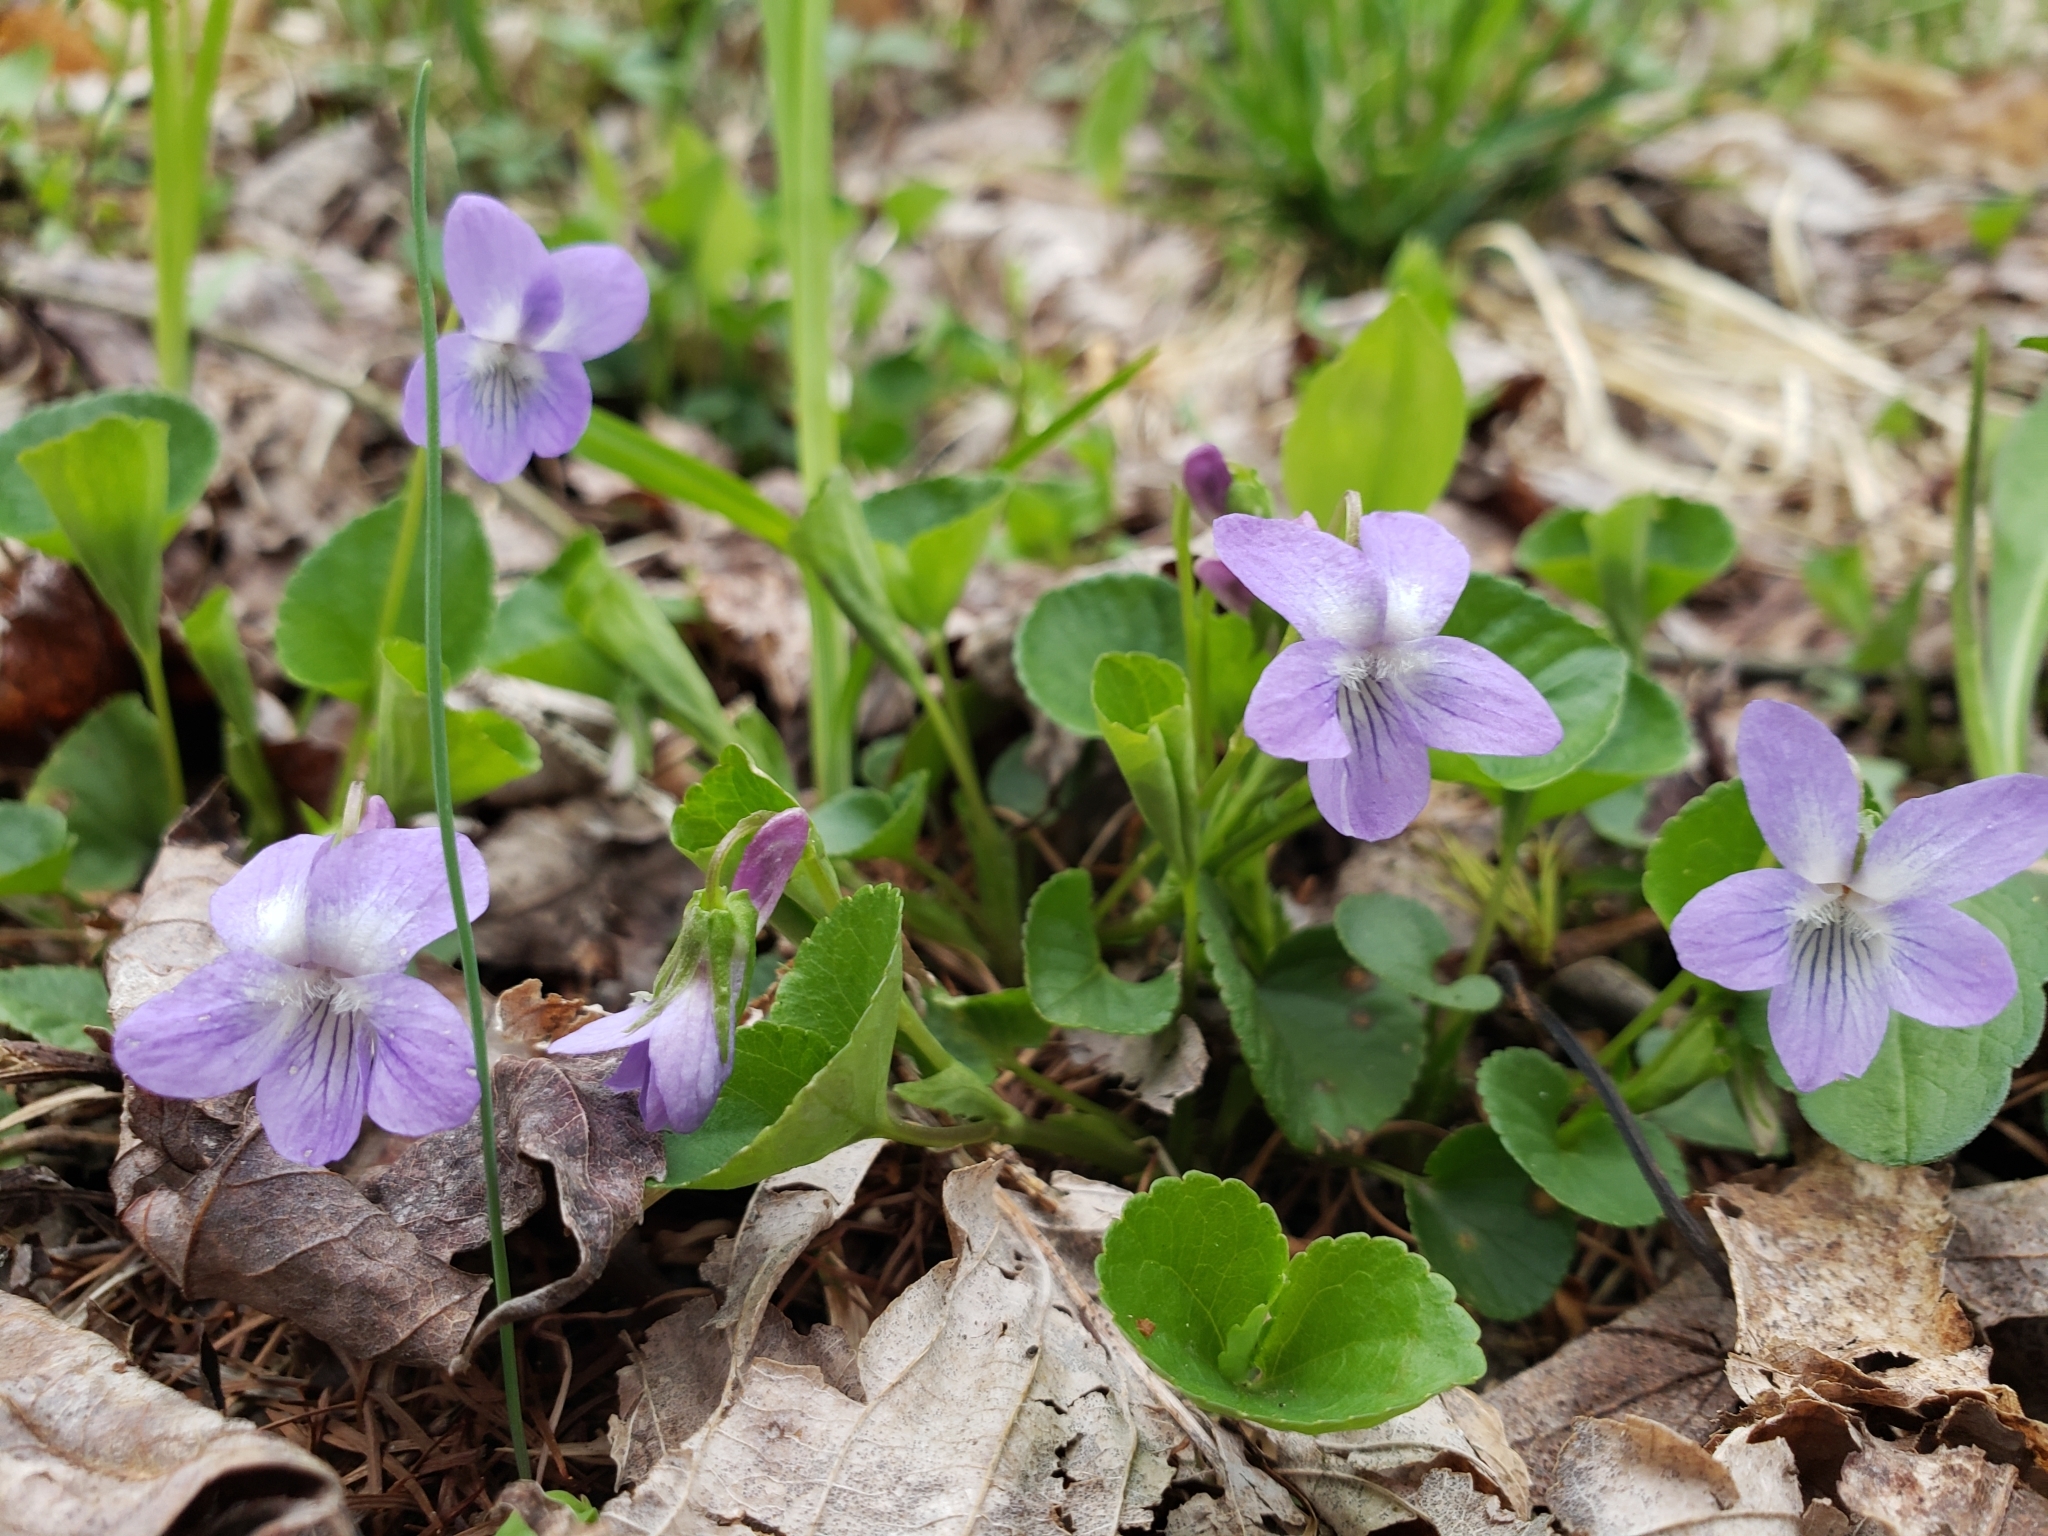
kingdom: Plantae
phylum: Tracheophyta
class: Magnoliopsida
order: Malpighiales
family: Violaceae
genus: Viola
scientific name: Viola rostrata
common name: Long-spur violet
